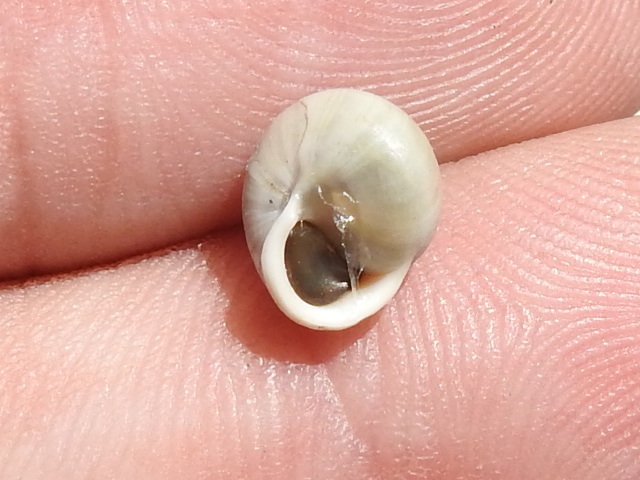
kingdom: Animalia
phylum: Mollusca
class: Gastropoda
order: Cycloneritida
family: Helicinidae
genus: Helicina
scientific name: Helicina orbiculata
